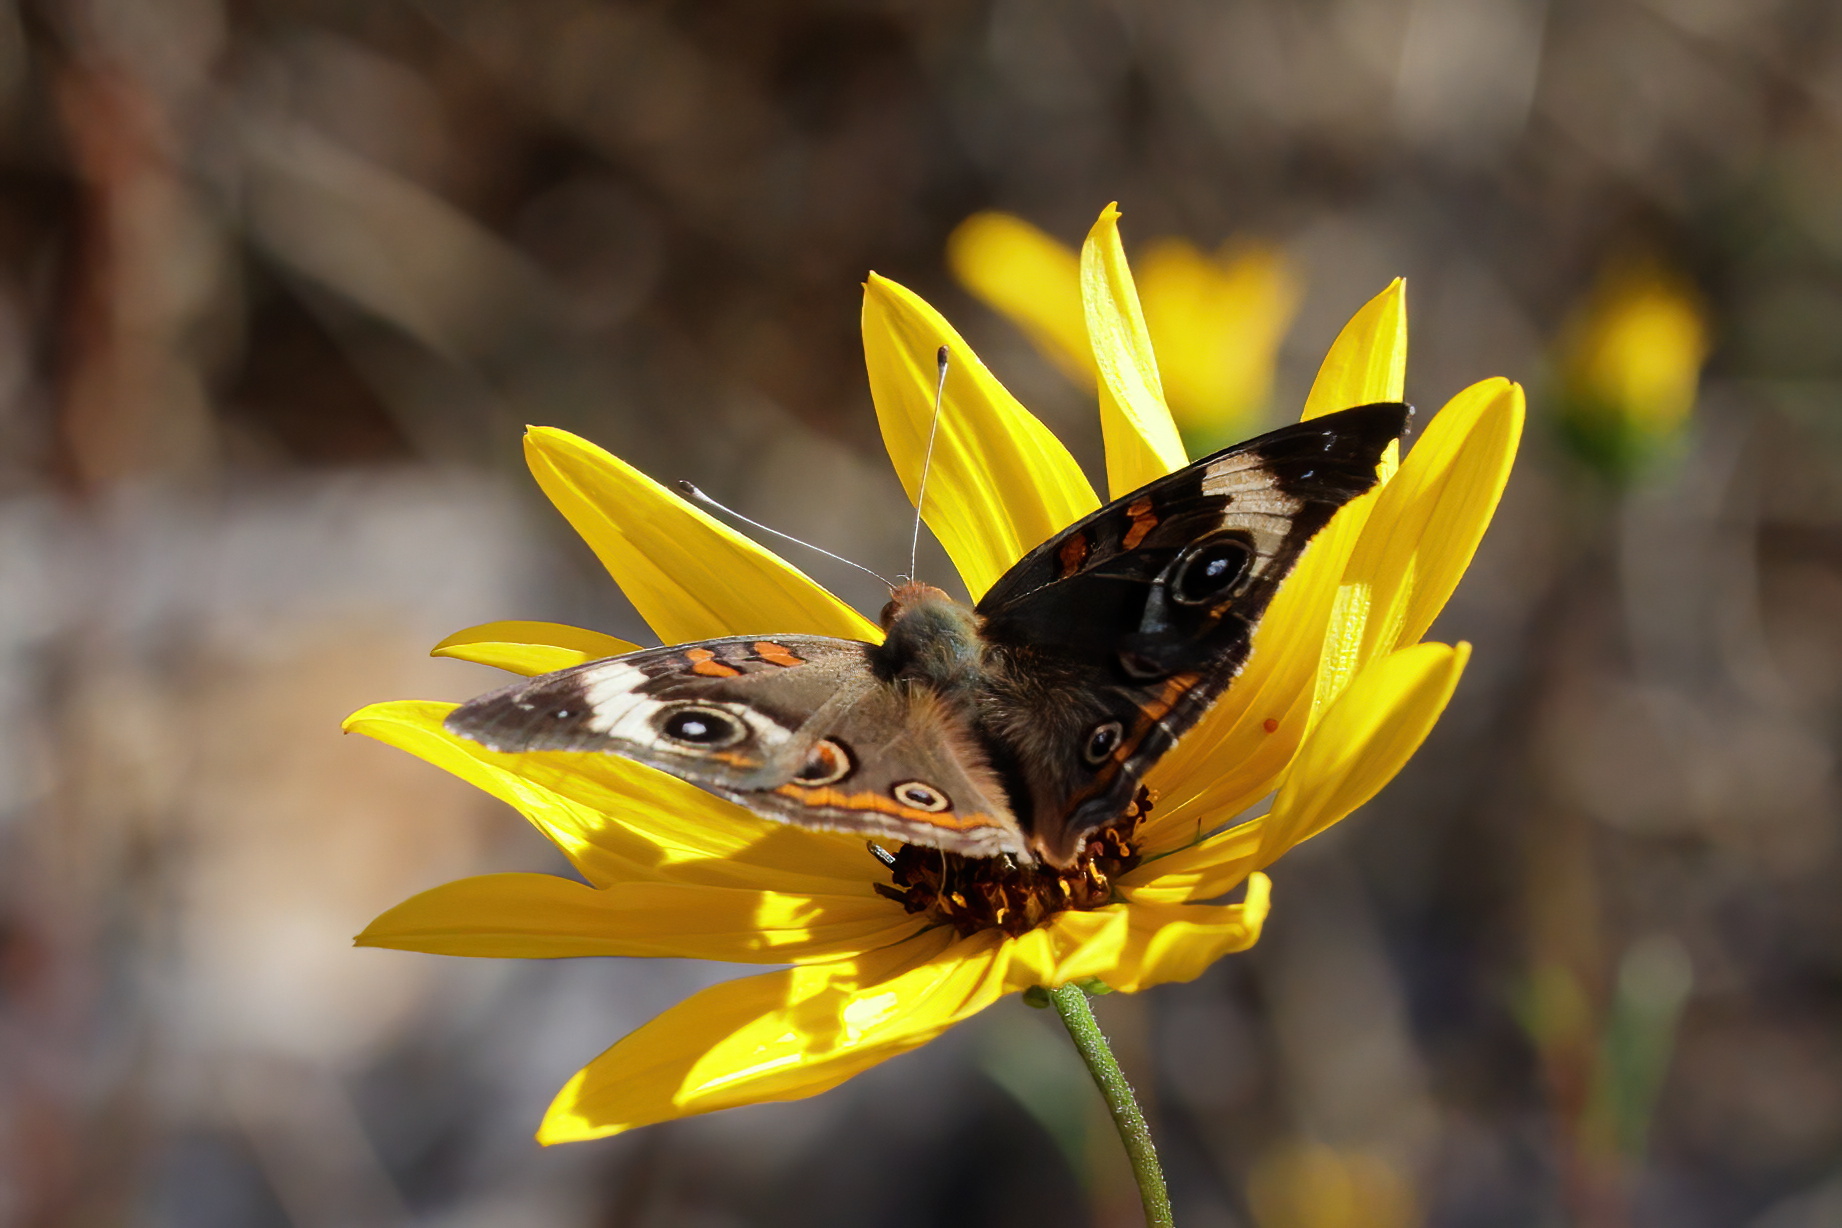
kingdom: Animalia
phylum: Arthropoda
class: Insecta
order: Lepidoptera
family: Nymphalidae
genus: Junonia
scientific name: Junonia coenia
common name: Common buckeye
